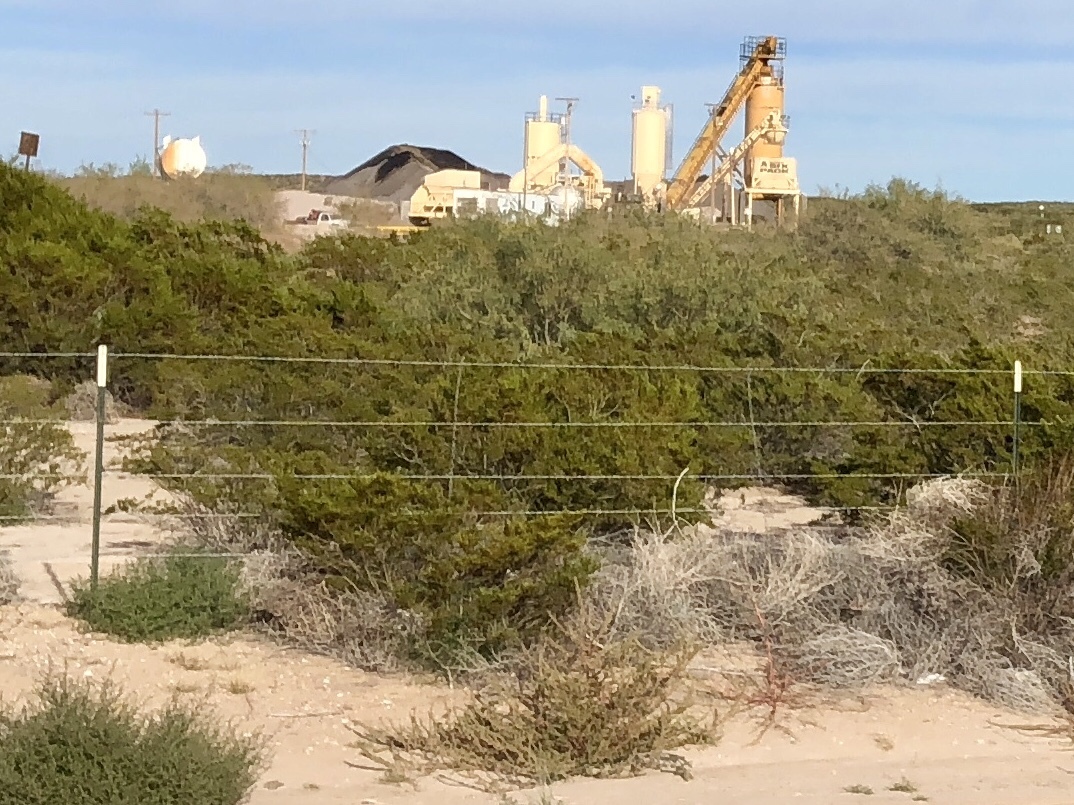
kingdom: Plantae
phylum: Tracheophyta
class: Magnoliopsida
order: Zygophyllales
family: Zygophyllaceae
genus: Larrea
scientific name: Larrea tridentata
